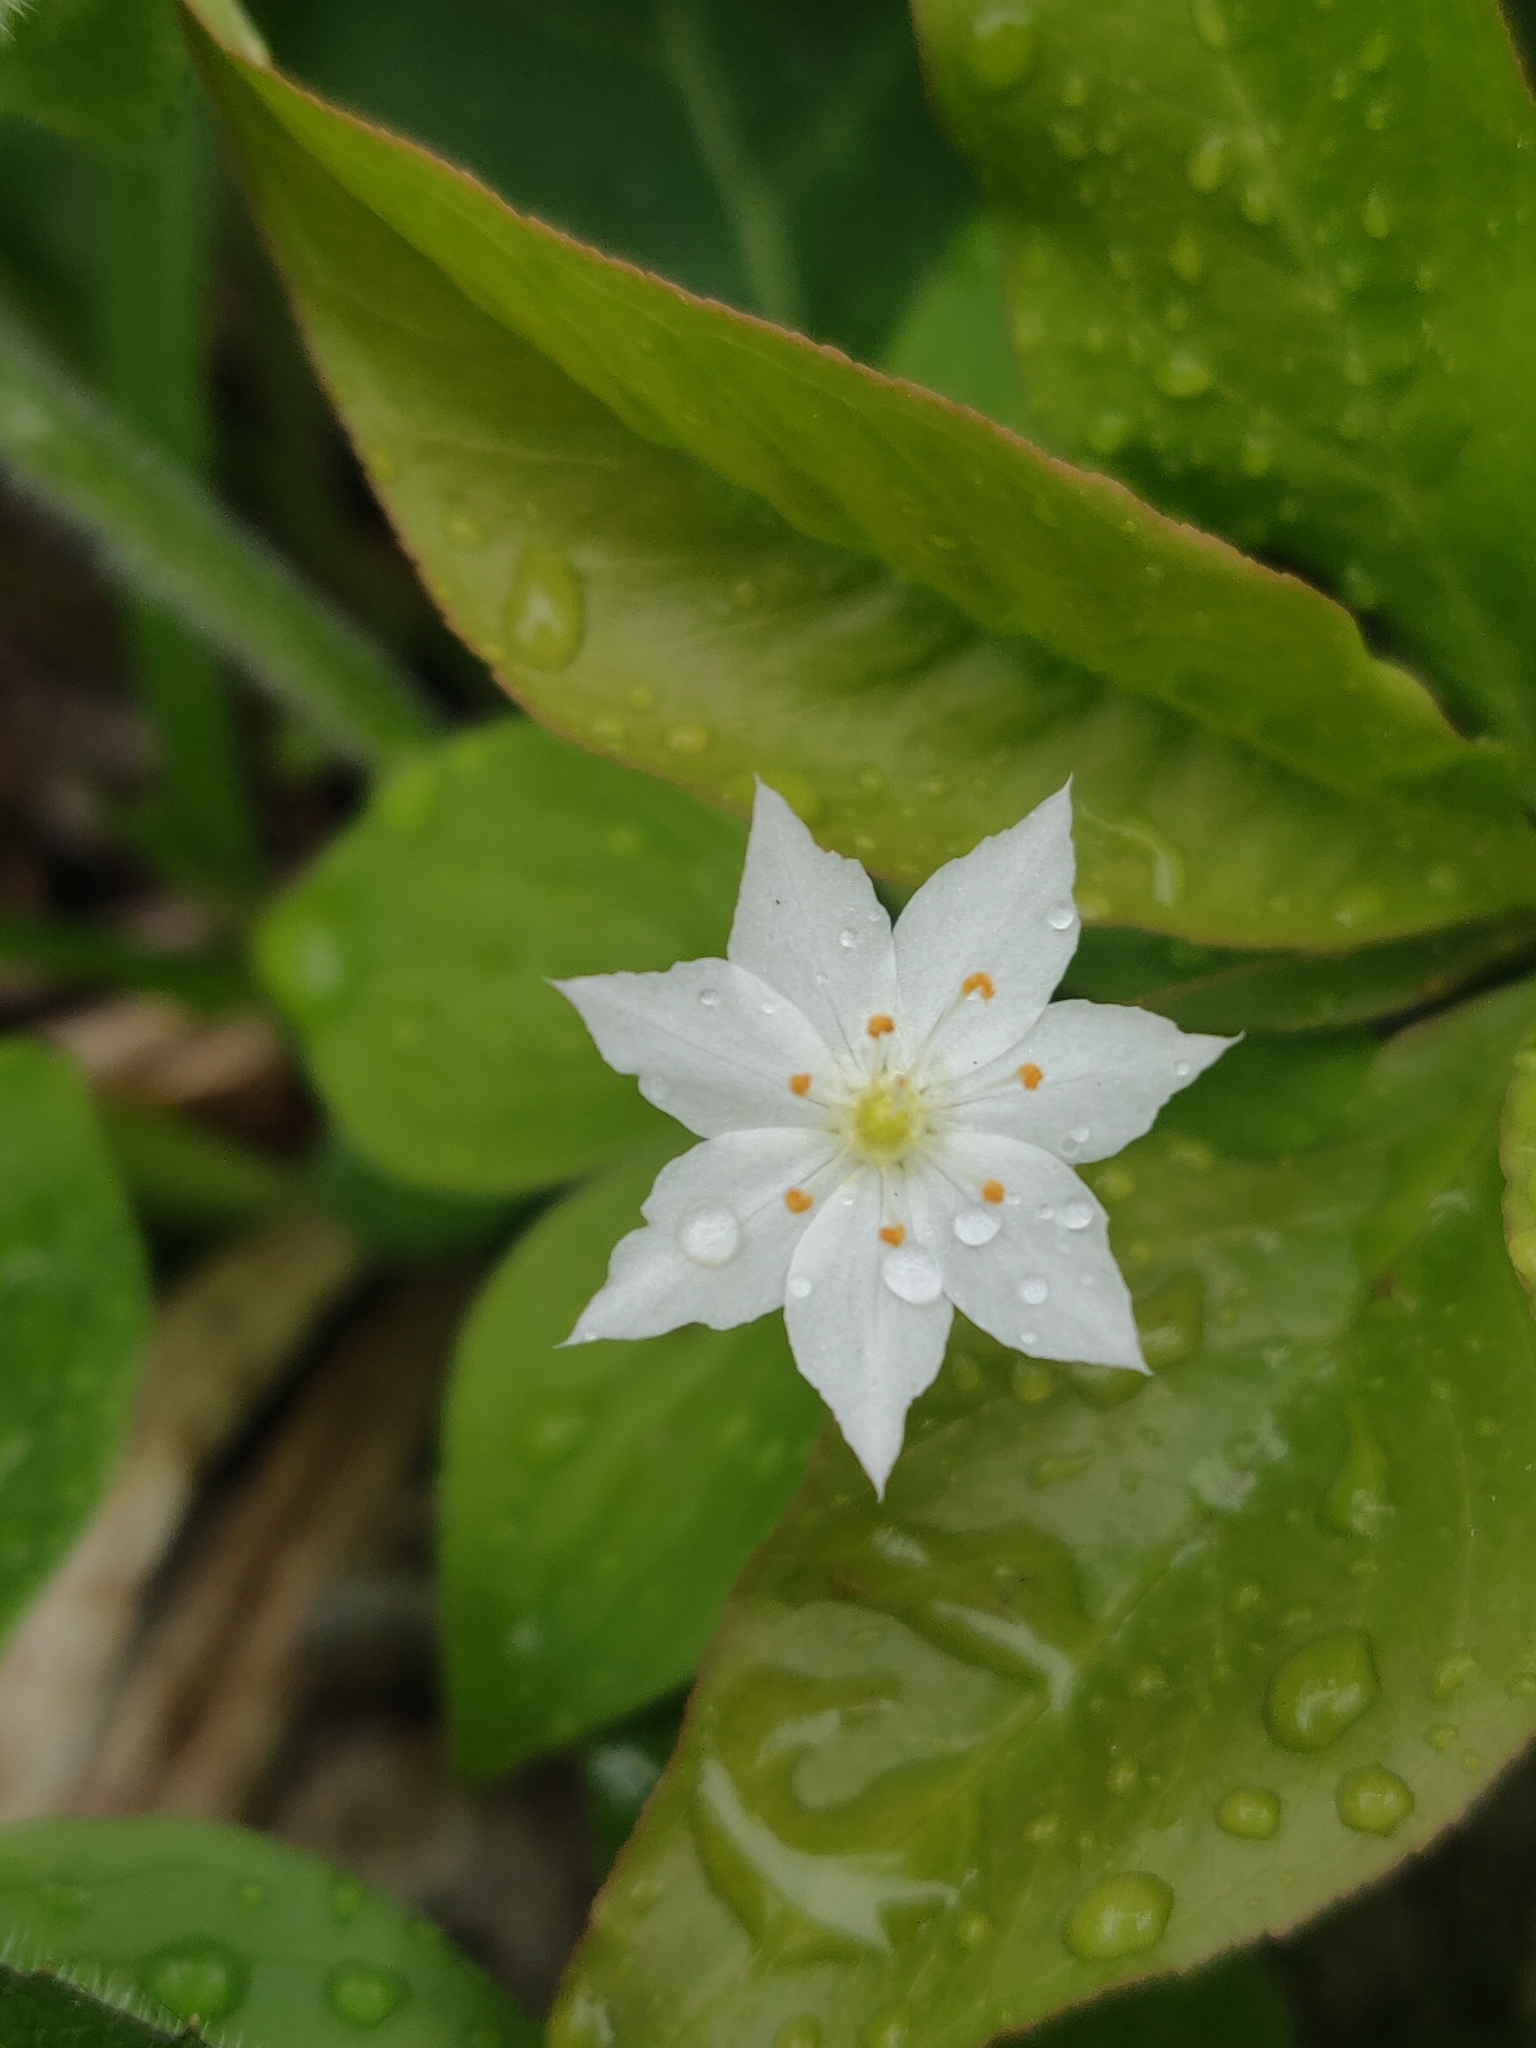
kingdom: Plantae
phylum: Tracheophyta
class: Magnoliopsida
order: Ericales
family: Primulaceae
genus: Lysimachia
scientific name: Lysimachia borealis
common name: American starflower
